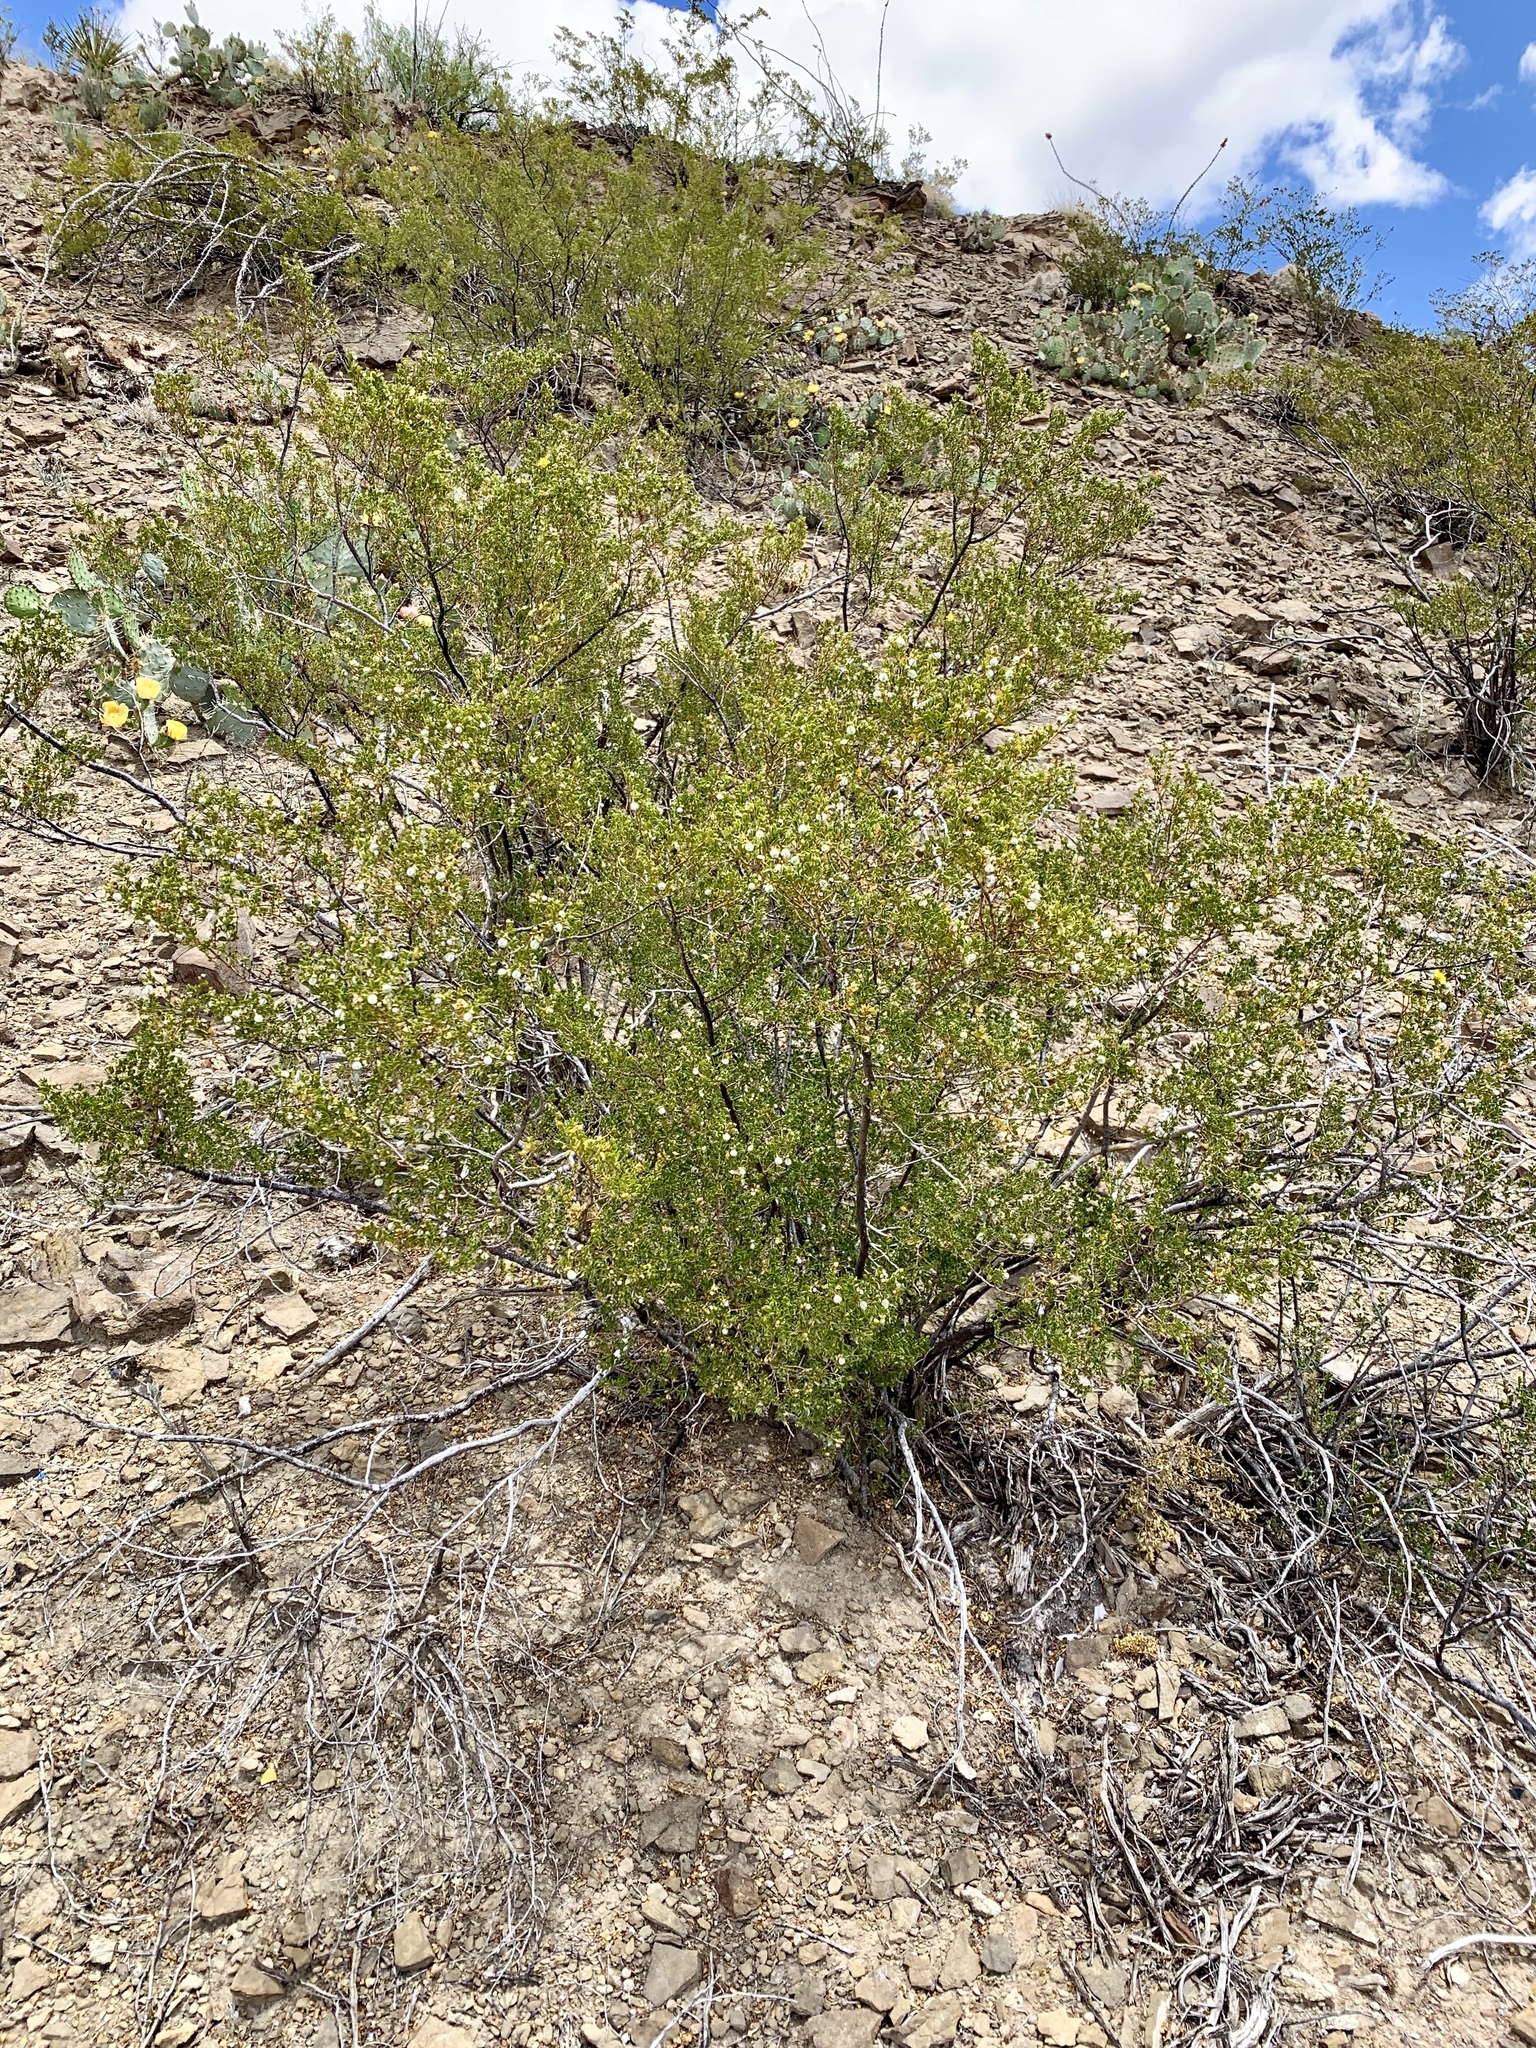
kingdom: Plantae
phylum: Tracheophyta
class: Magnoliopsida
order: Zygophyllales
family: Zygophyllaceae
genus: Larrea
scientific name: Larrea tridentata
